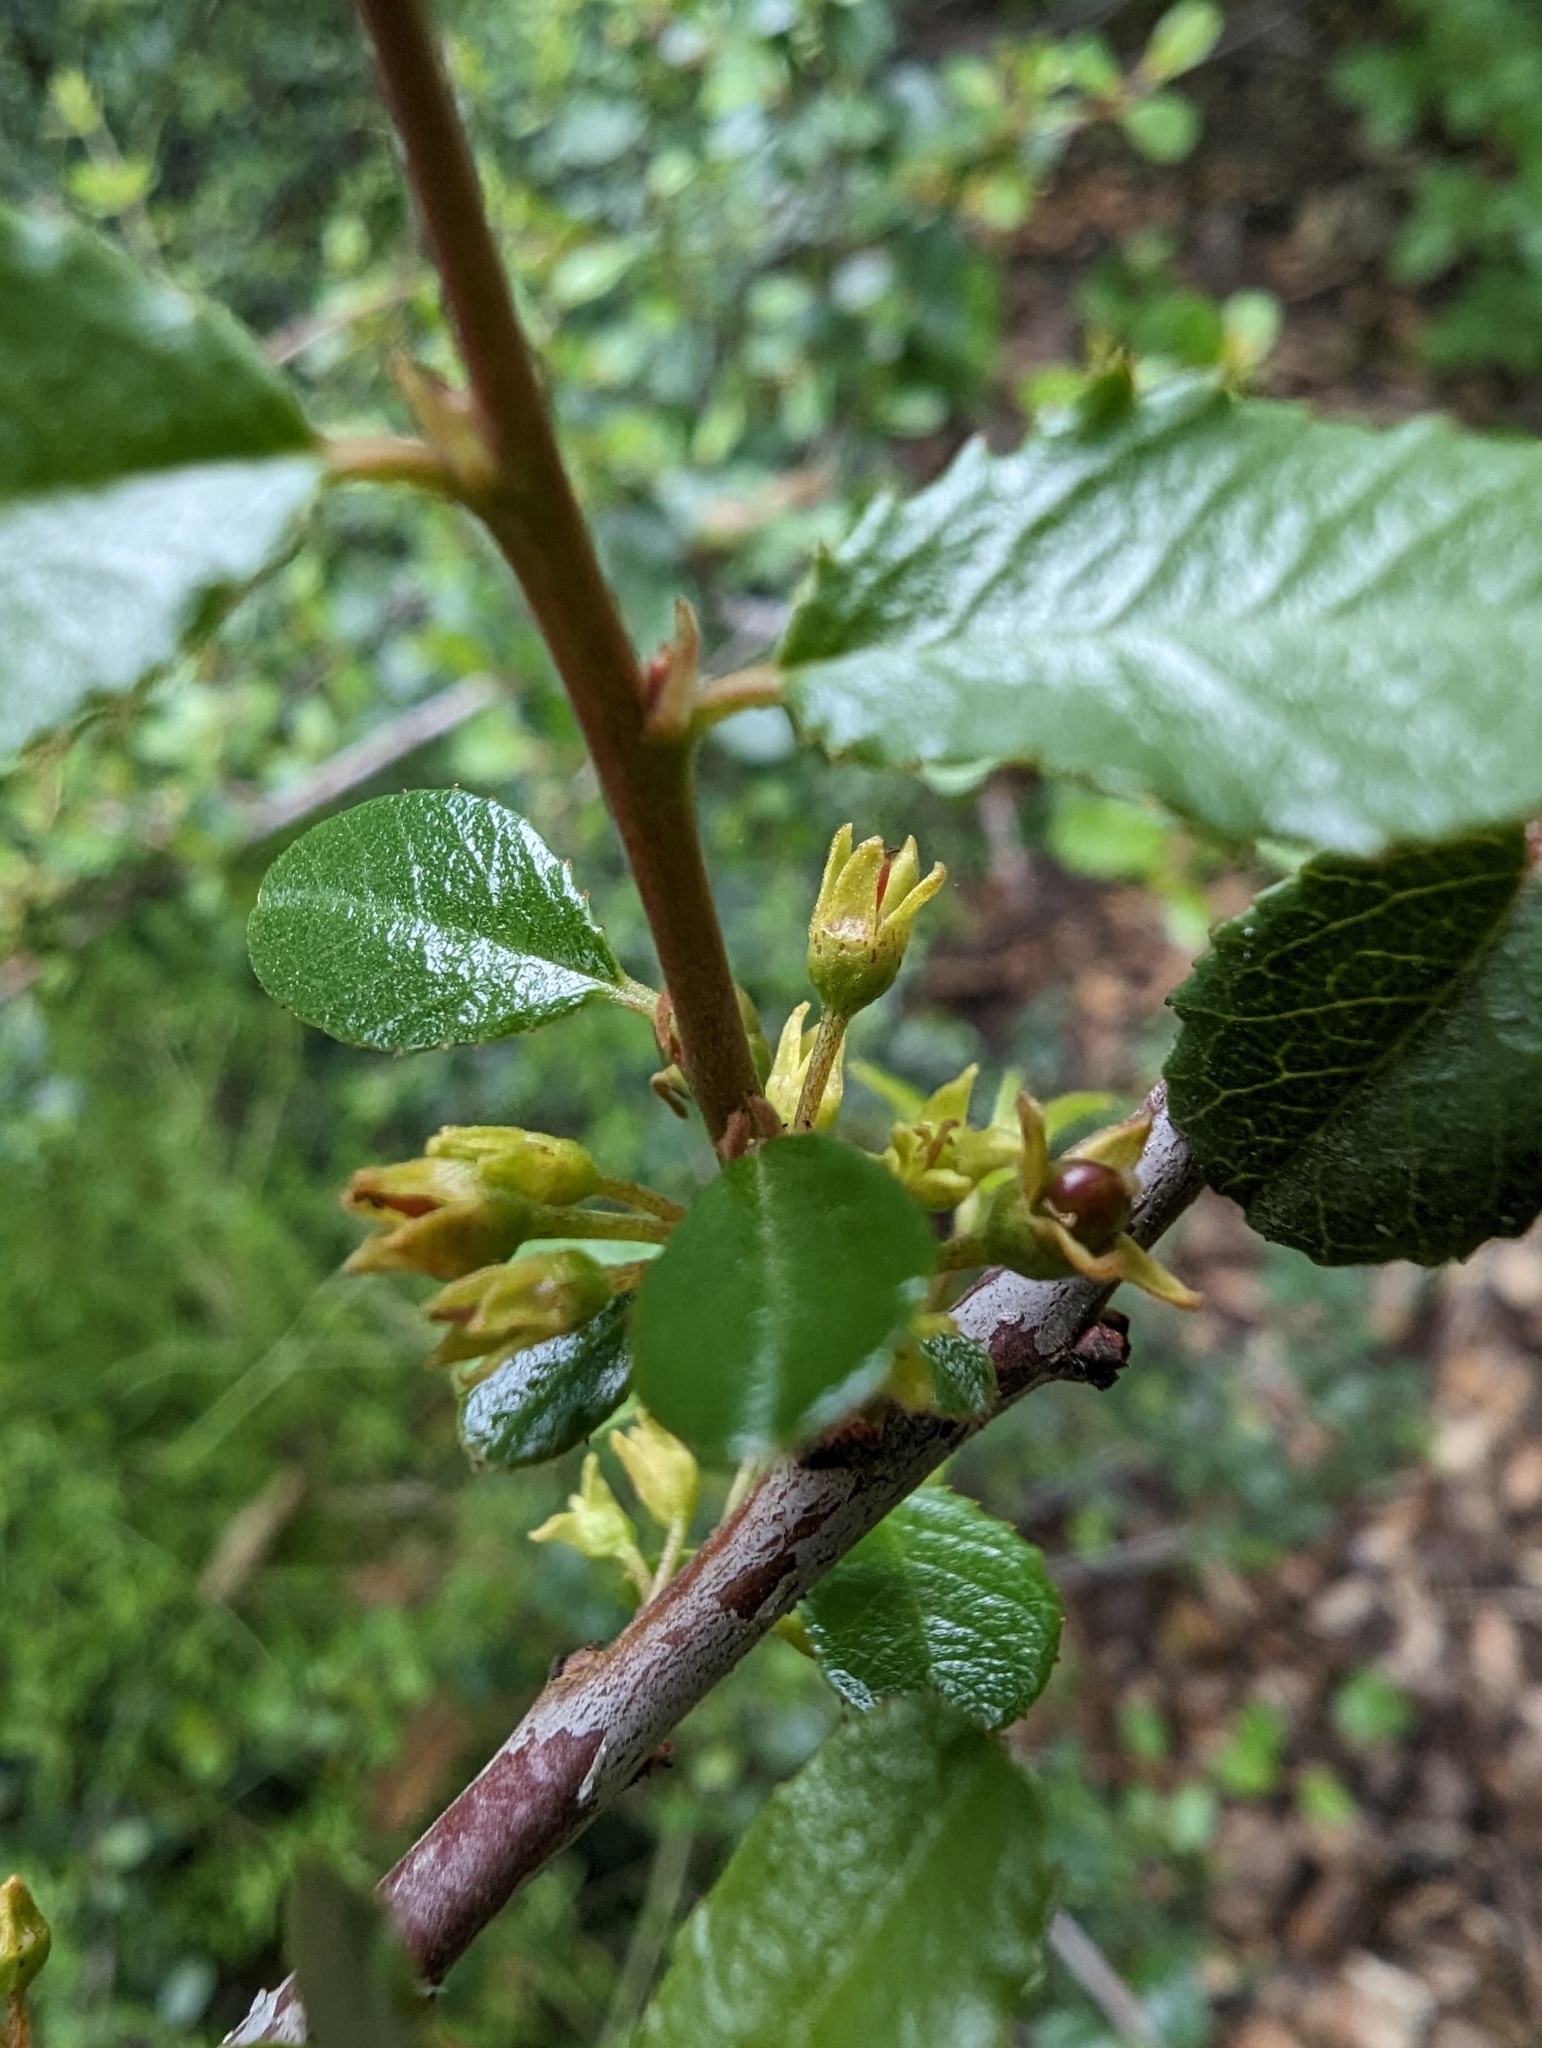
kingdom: Plantae
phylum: Tracheophyta
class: Magnoliopsida
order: Rosales
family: Rhamnaceae
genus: Endotropis
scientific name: Endotropis crocea
